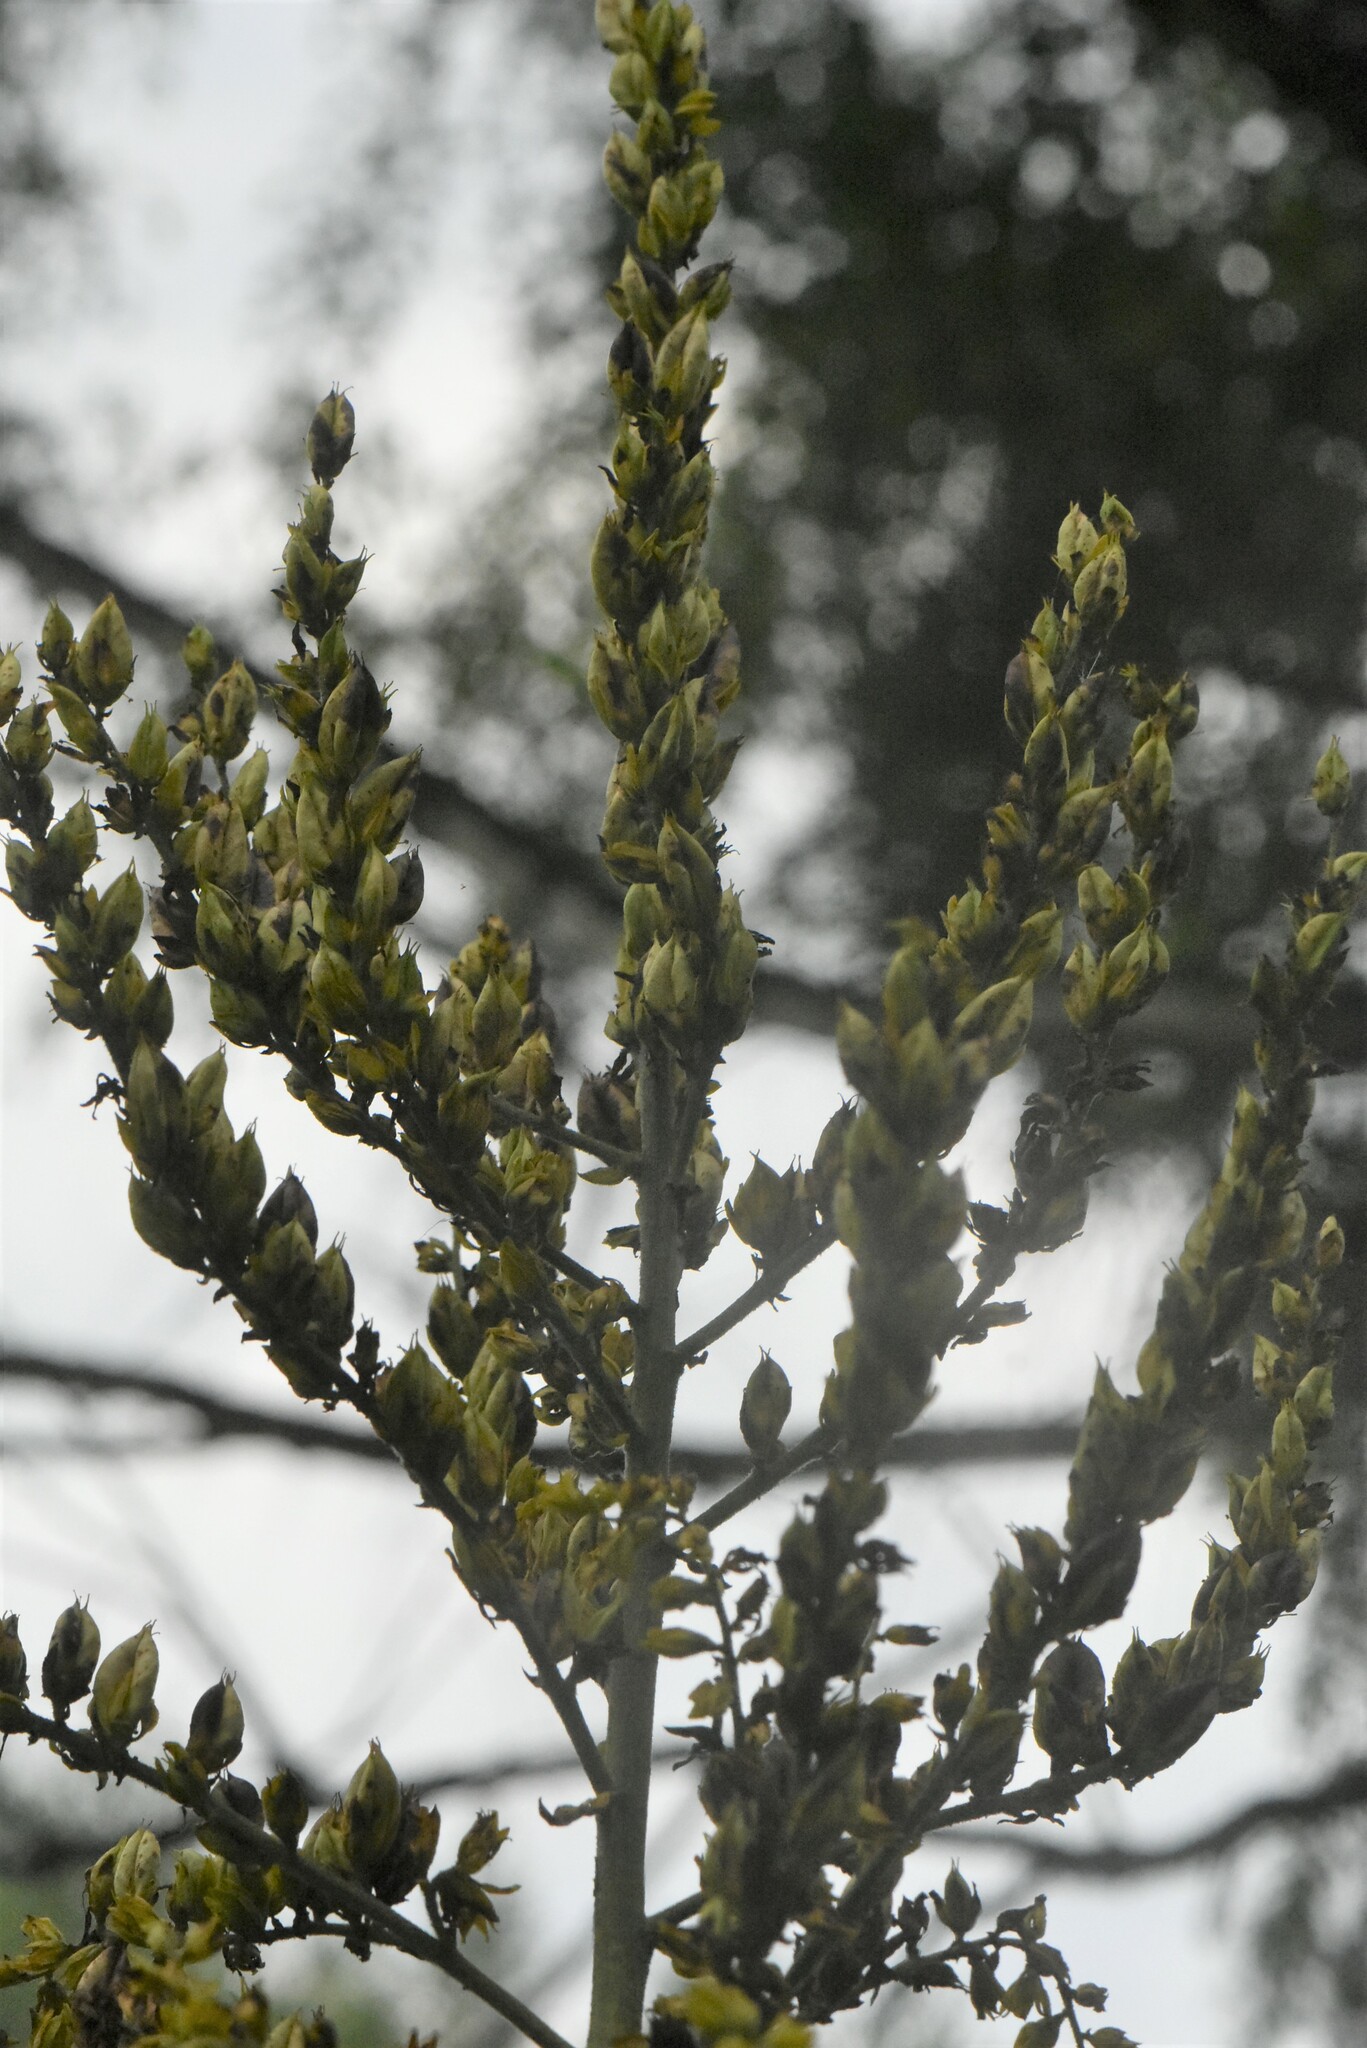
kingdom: Plantae
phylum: Tracheophyta
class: Liliopsida
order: Liliales
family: Melanthiaceae
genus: Veratrum
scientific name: Veratrum lobelianum
